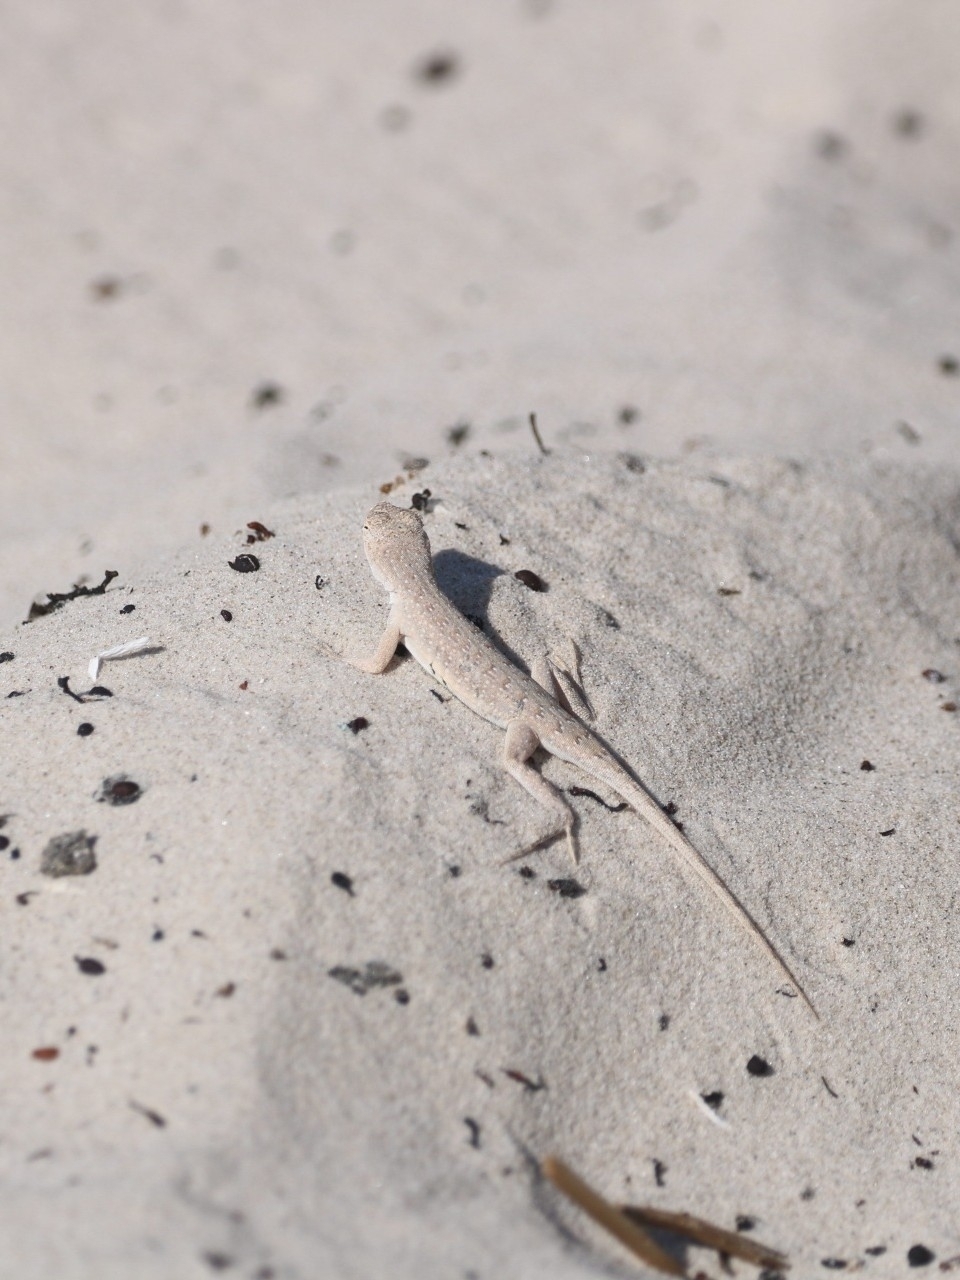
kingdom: Animalia
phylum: Chordata
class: Squamata
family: Phrynosomatidae
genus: Holbrookia
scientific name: Holbrookia propinqua
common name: Keeled earless lizard
